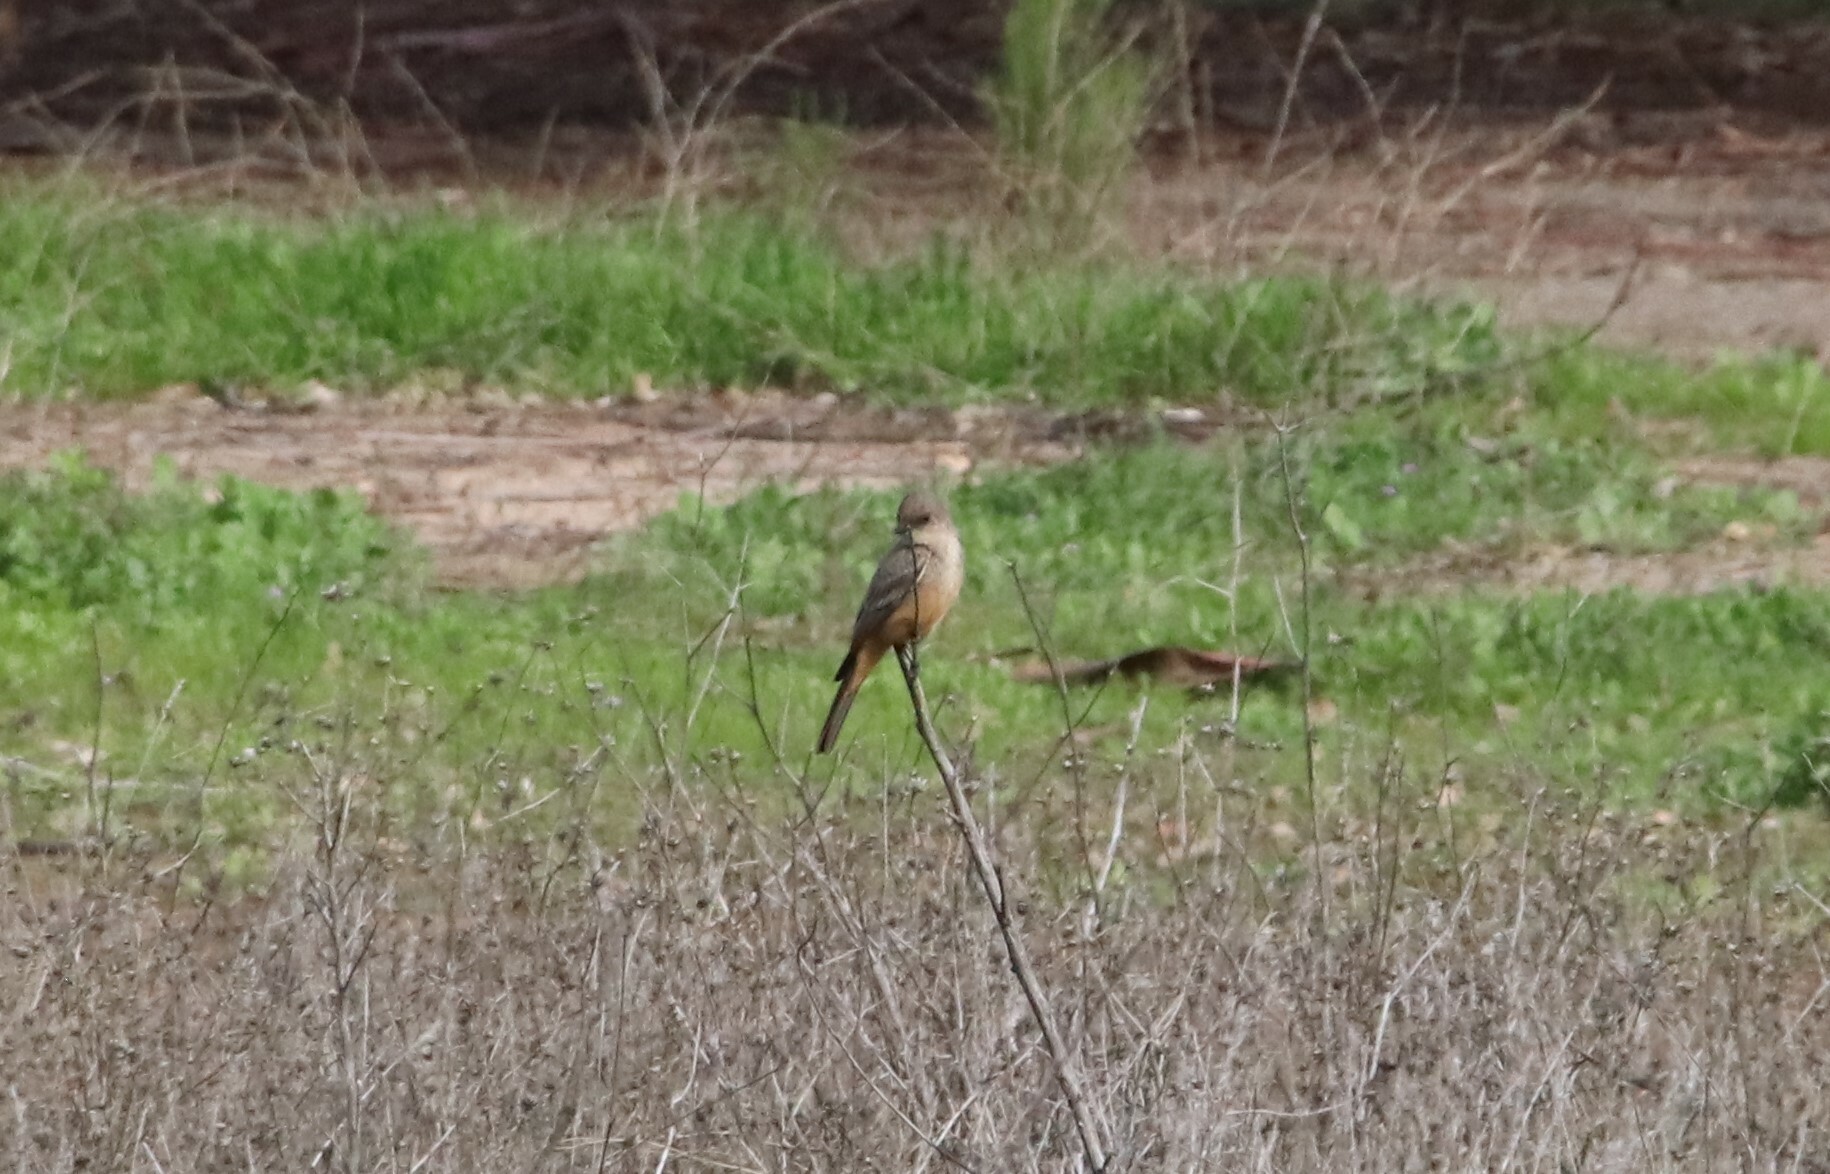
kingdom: Animalia
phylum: Chordata
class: Aves
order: Passeriformes
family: Tyrannidae
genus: Sayornis
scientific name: Sayornis saya
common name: Say's phoebe
